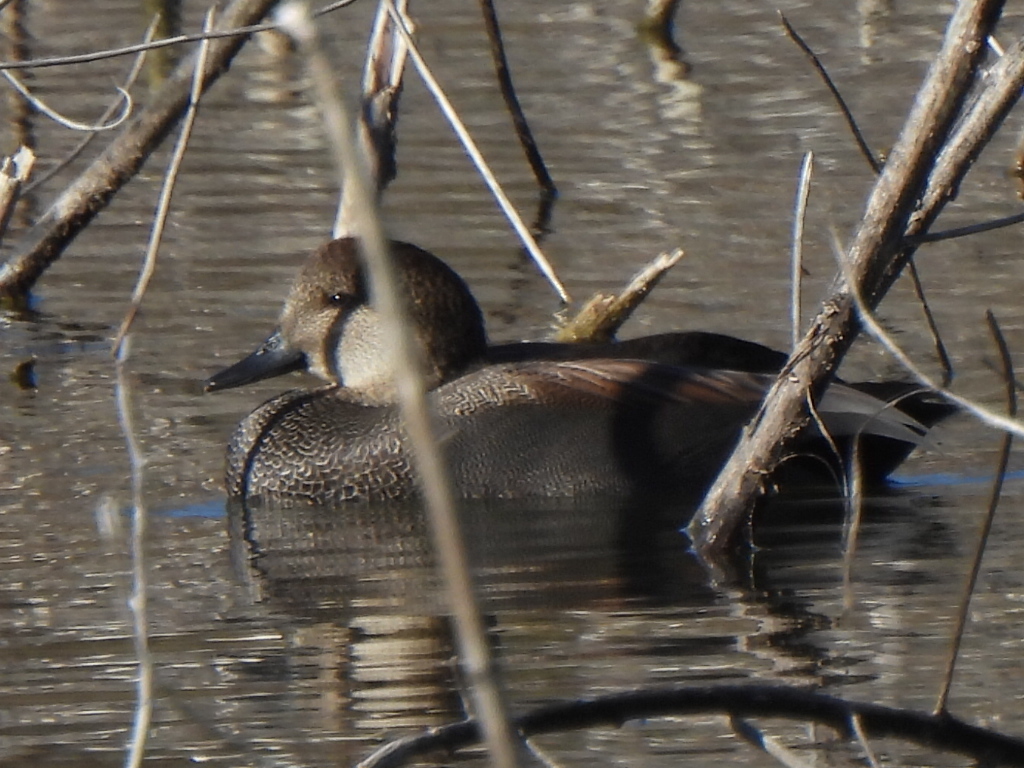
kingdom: Animalia
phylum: Chordata
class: Aves
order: Anseriformes
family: Anatidae
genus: Mareca
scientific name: Mareca strepera
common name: Gadwall
